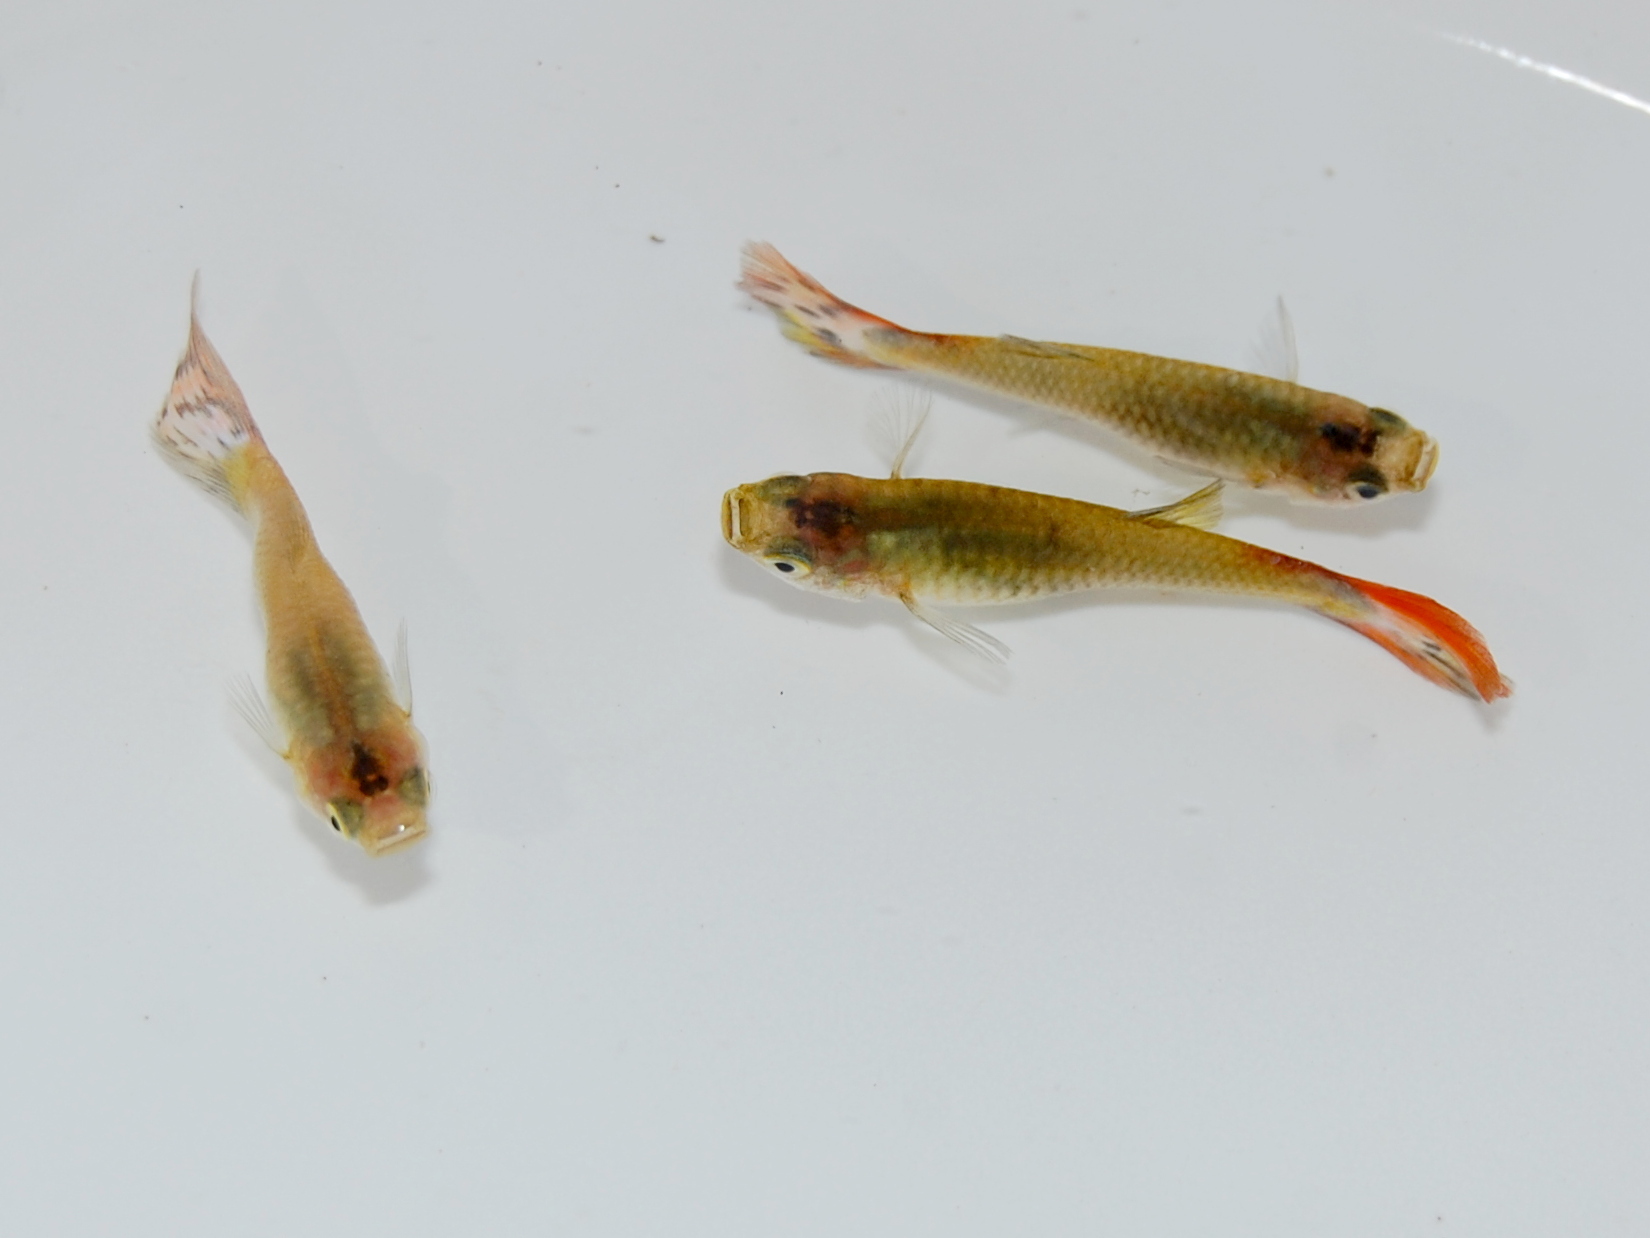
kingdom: Animalia
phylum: Chordata
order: Cyprinodontiformes
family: Poeciliidae
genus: Poecilia
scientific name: Poecilia reticulata
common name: Guppy
